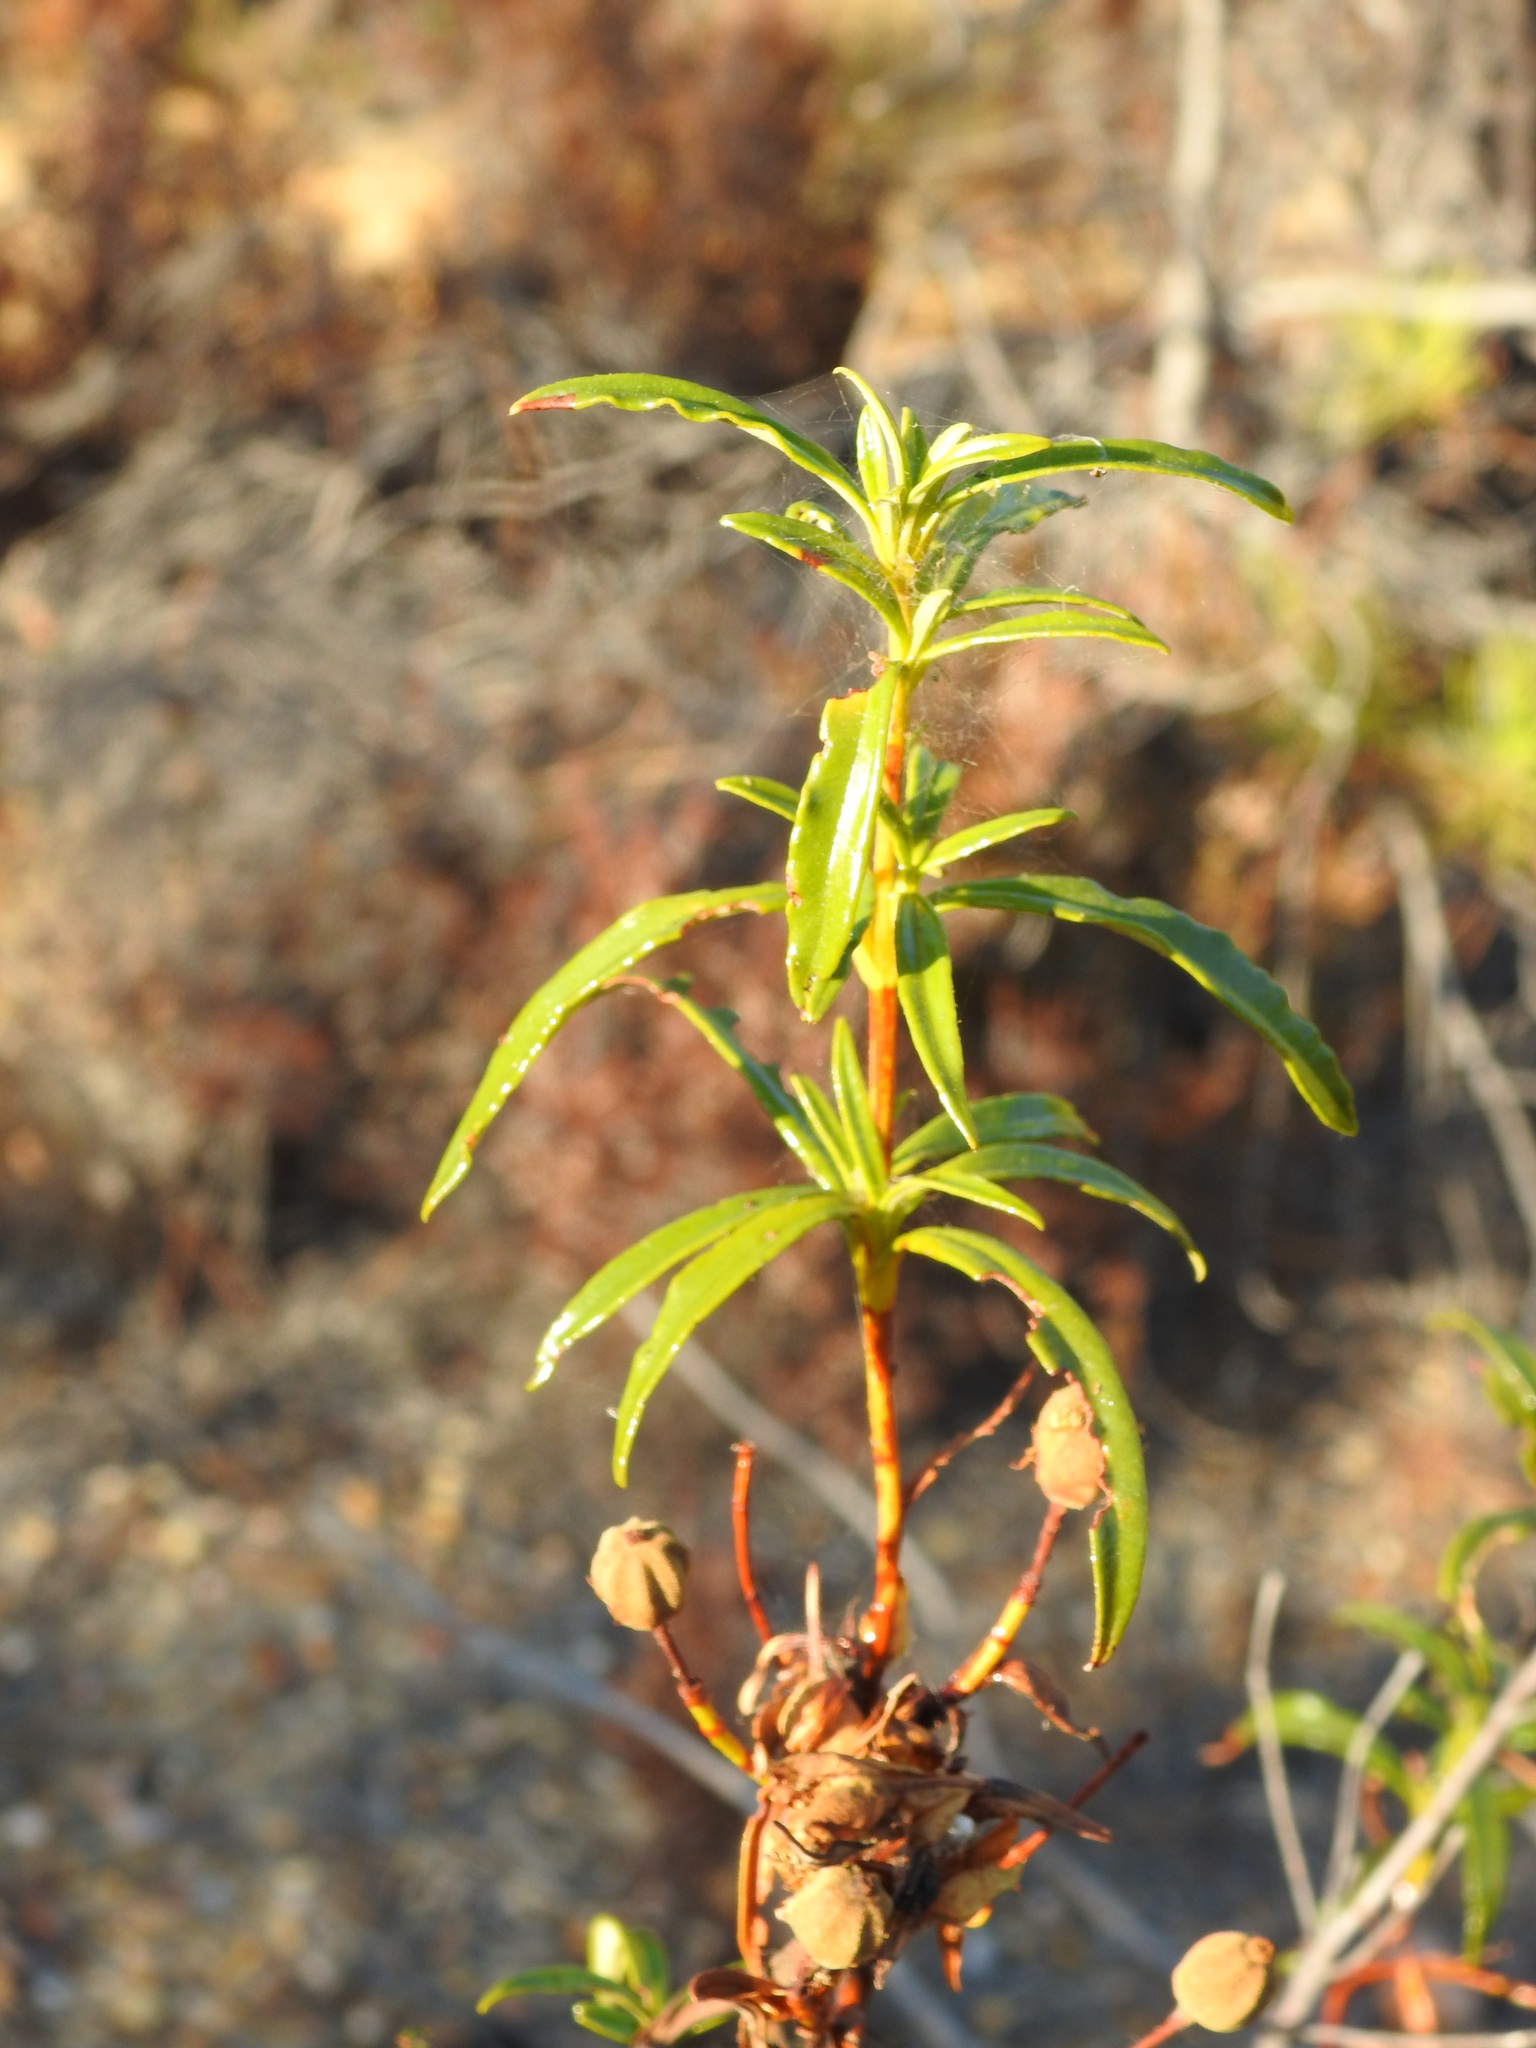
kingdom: Plantae
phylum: Tracheophyta
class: Magnoliopsida
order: Malvales
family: Cistaceae
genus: Cistus
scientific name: Cistus ladanifer
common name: Common gum cistus
